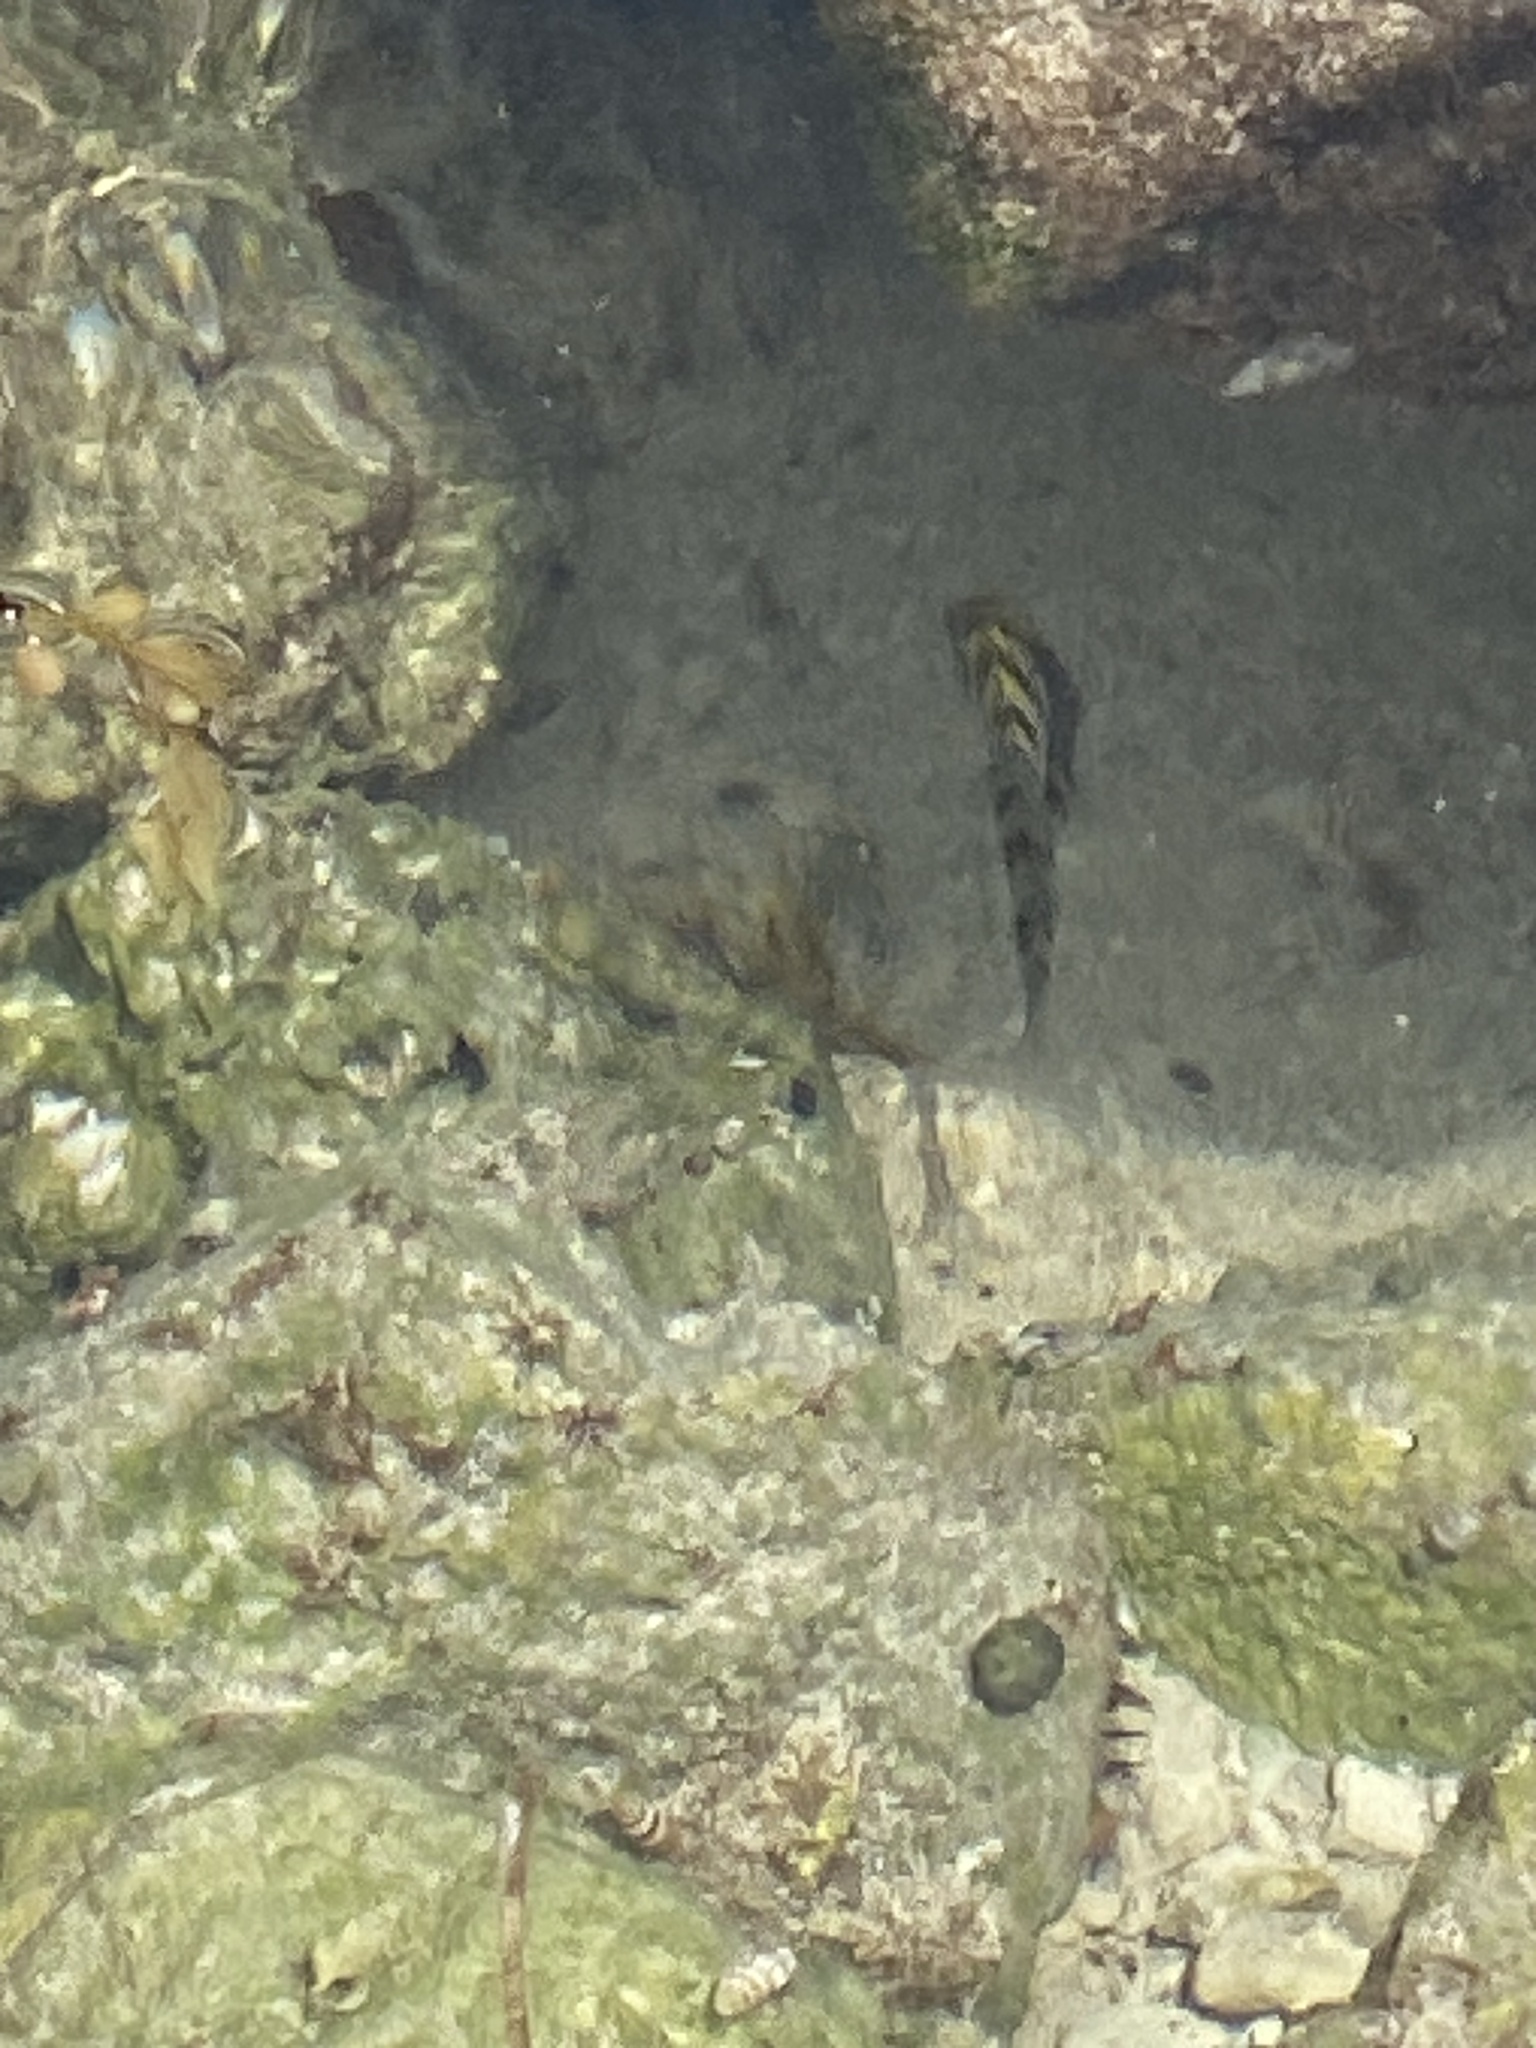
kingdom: Animalia
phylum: Chordata
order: Perciformes
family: Pomacentridae
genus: Abudefduf
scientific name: Abudefduf saxatilis
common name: Sergeant major
